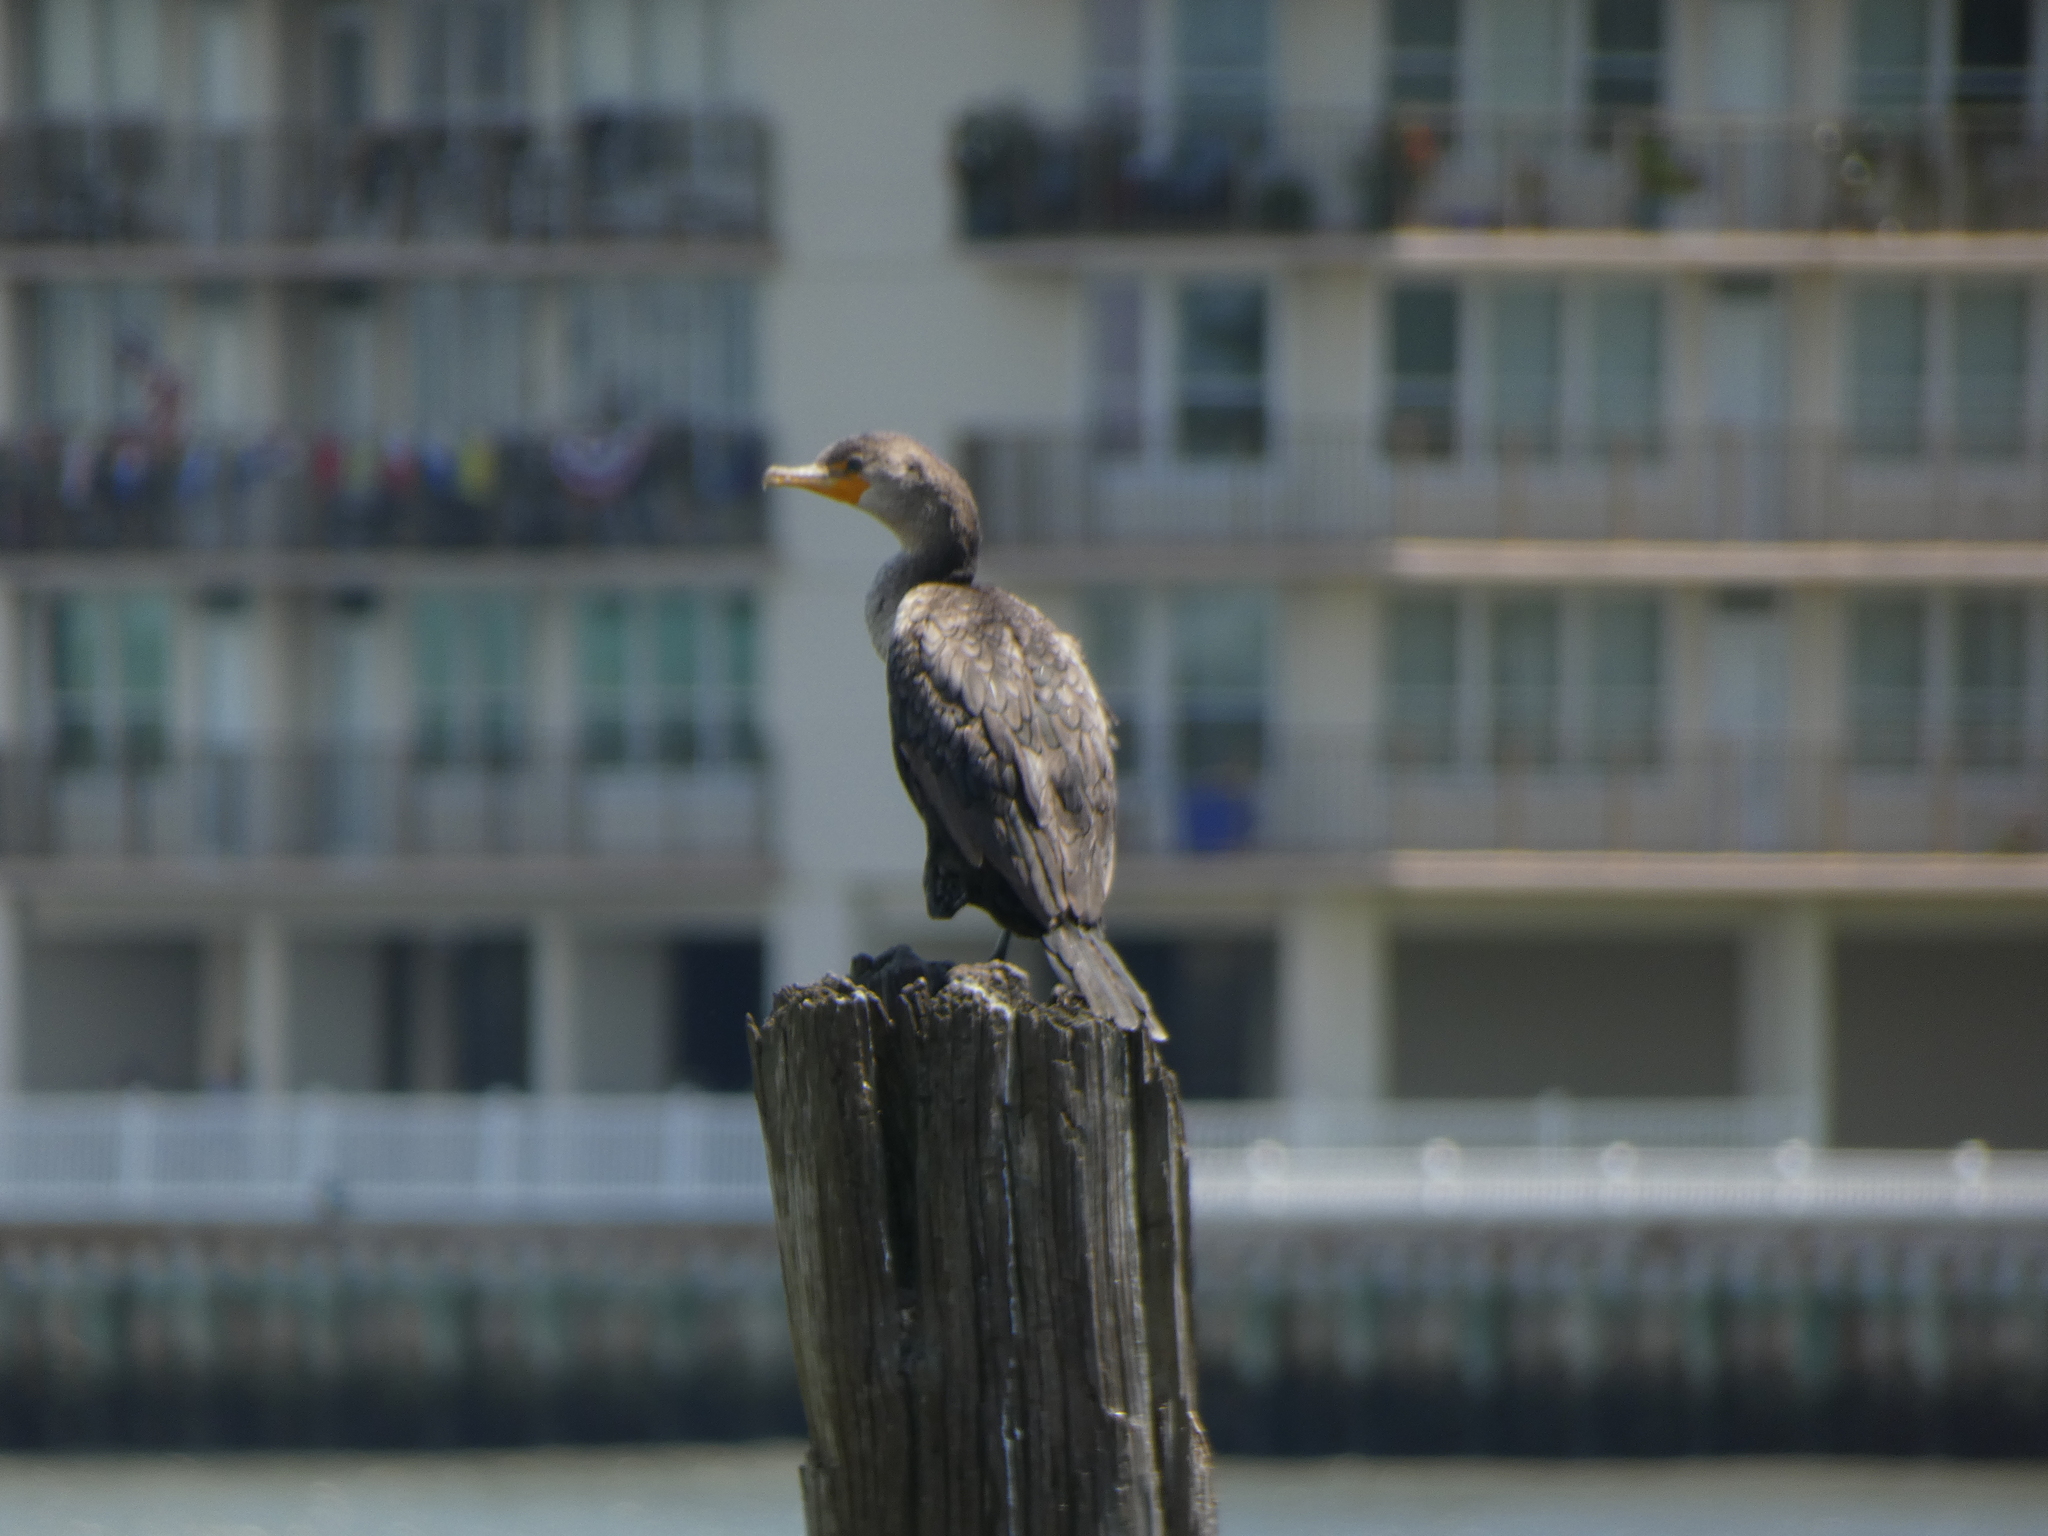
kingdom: Animalia
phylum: Chordata
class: Aves
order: Suliformes
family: Phalacrocoracidae
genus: Phalacrocorax
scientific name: Phalacrocorax auritus
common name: Double-crested cormorant
